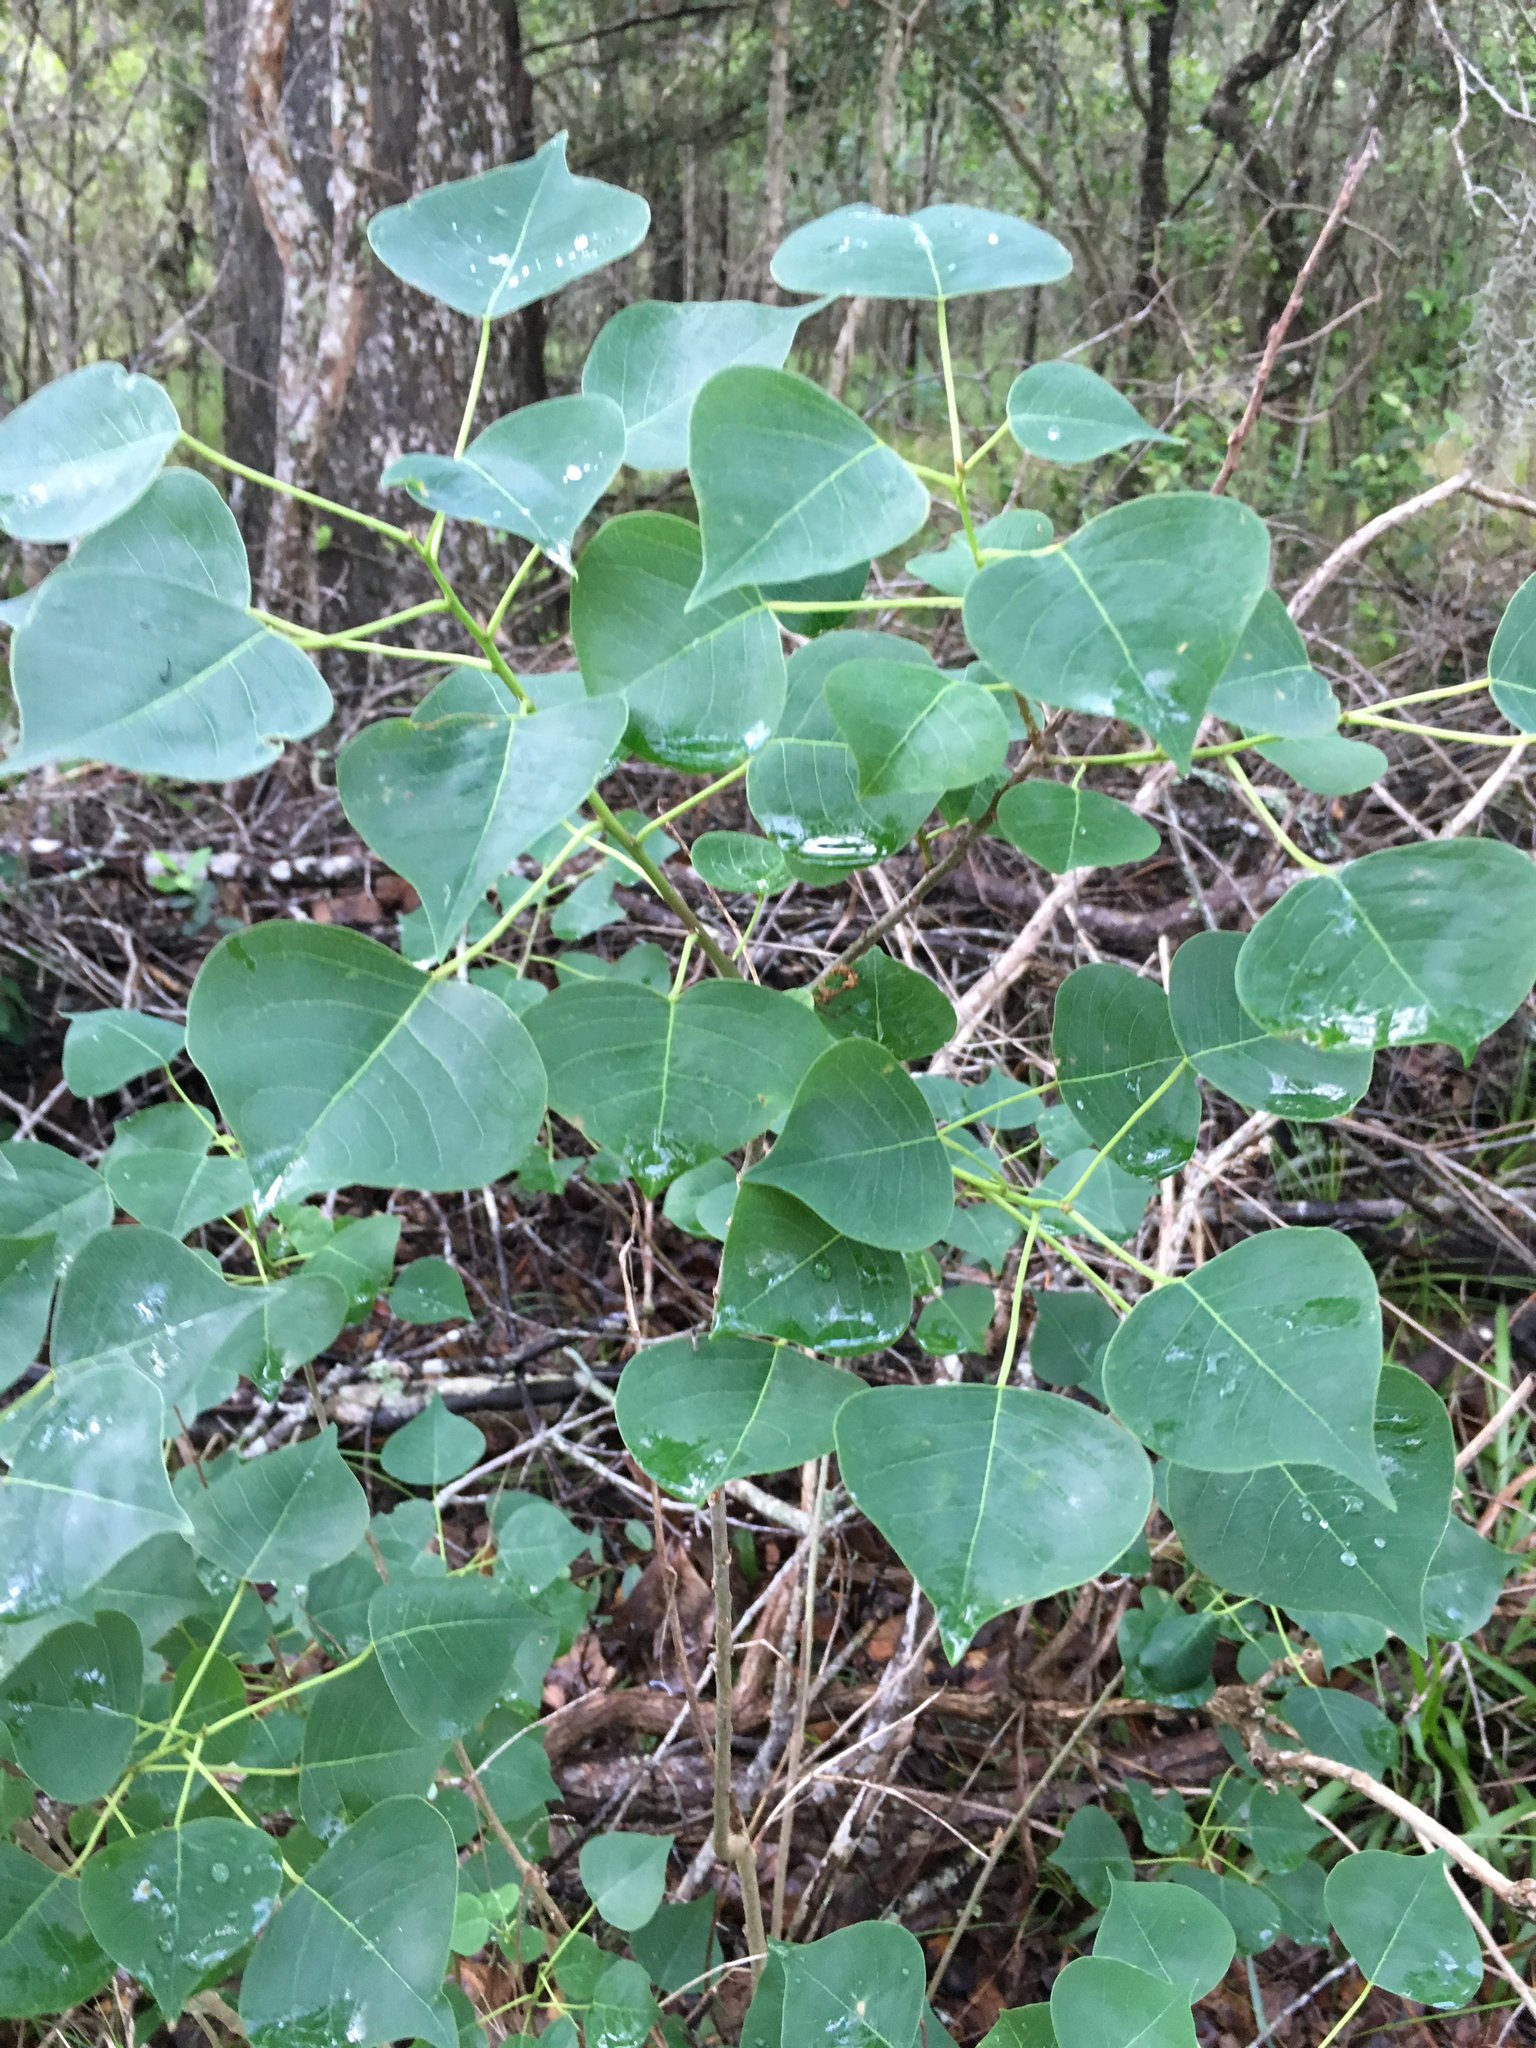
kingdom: Plantae
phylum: Tracheophyta
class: Magnoliopsida
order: Malpighiales
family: Euphorbiaceae
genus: Triadica
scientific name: Triadica sebifera
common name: Chinese tallow
